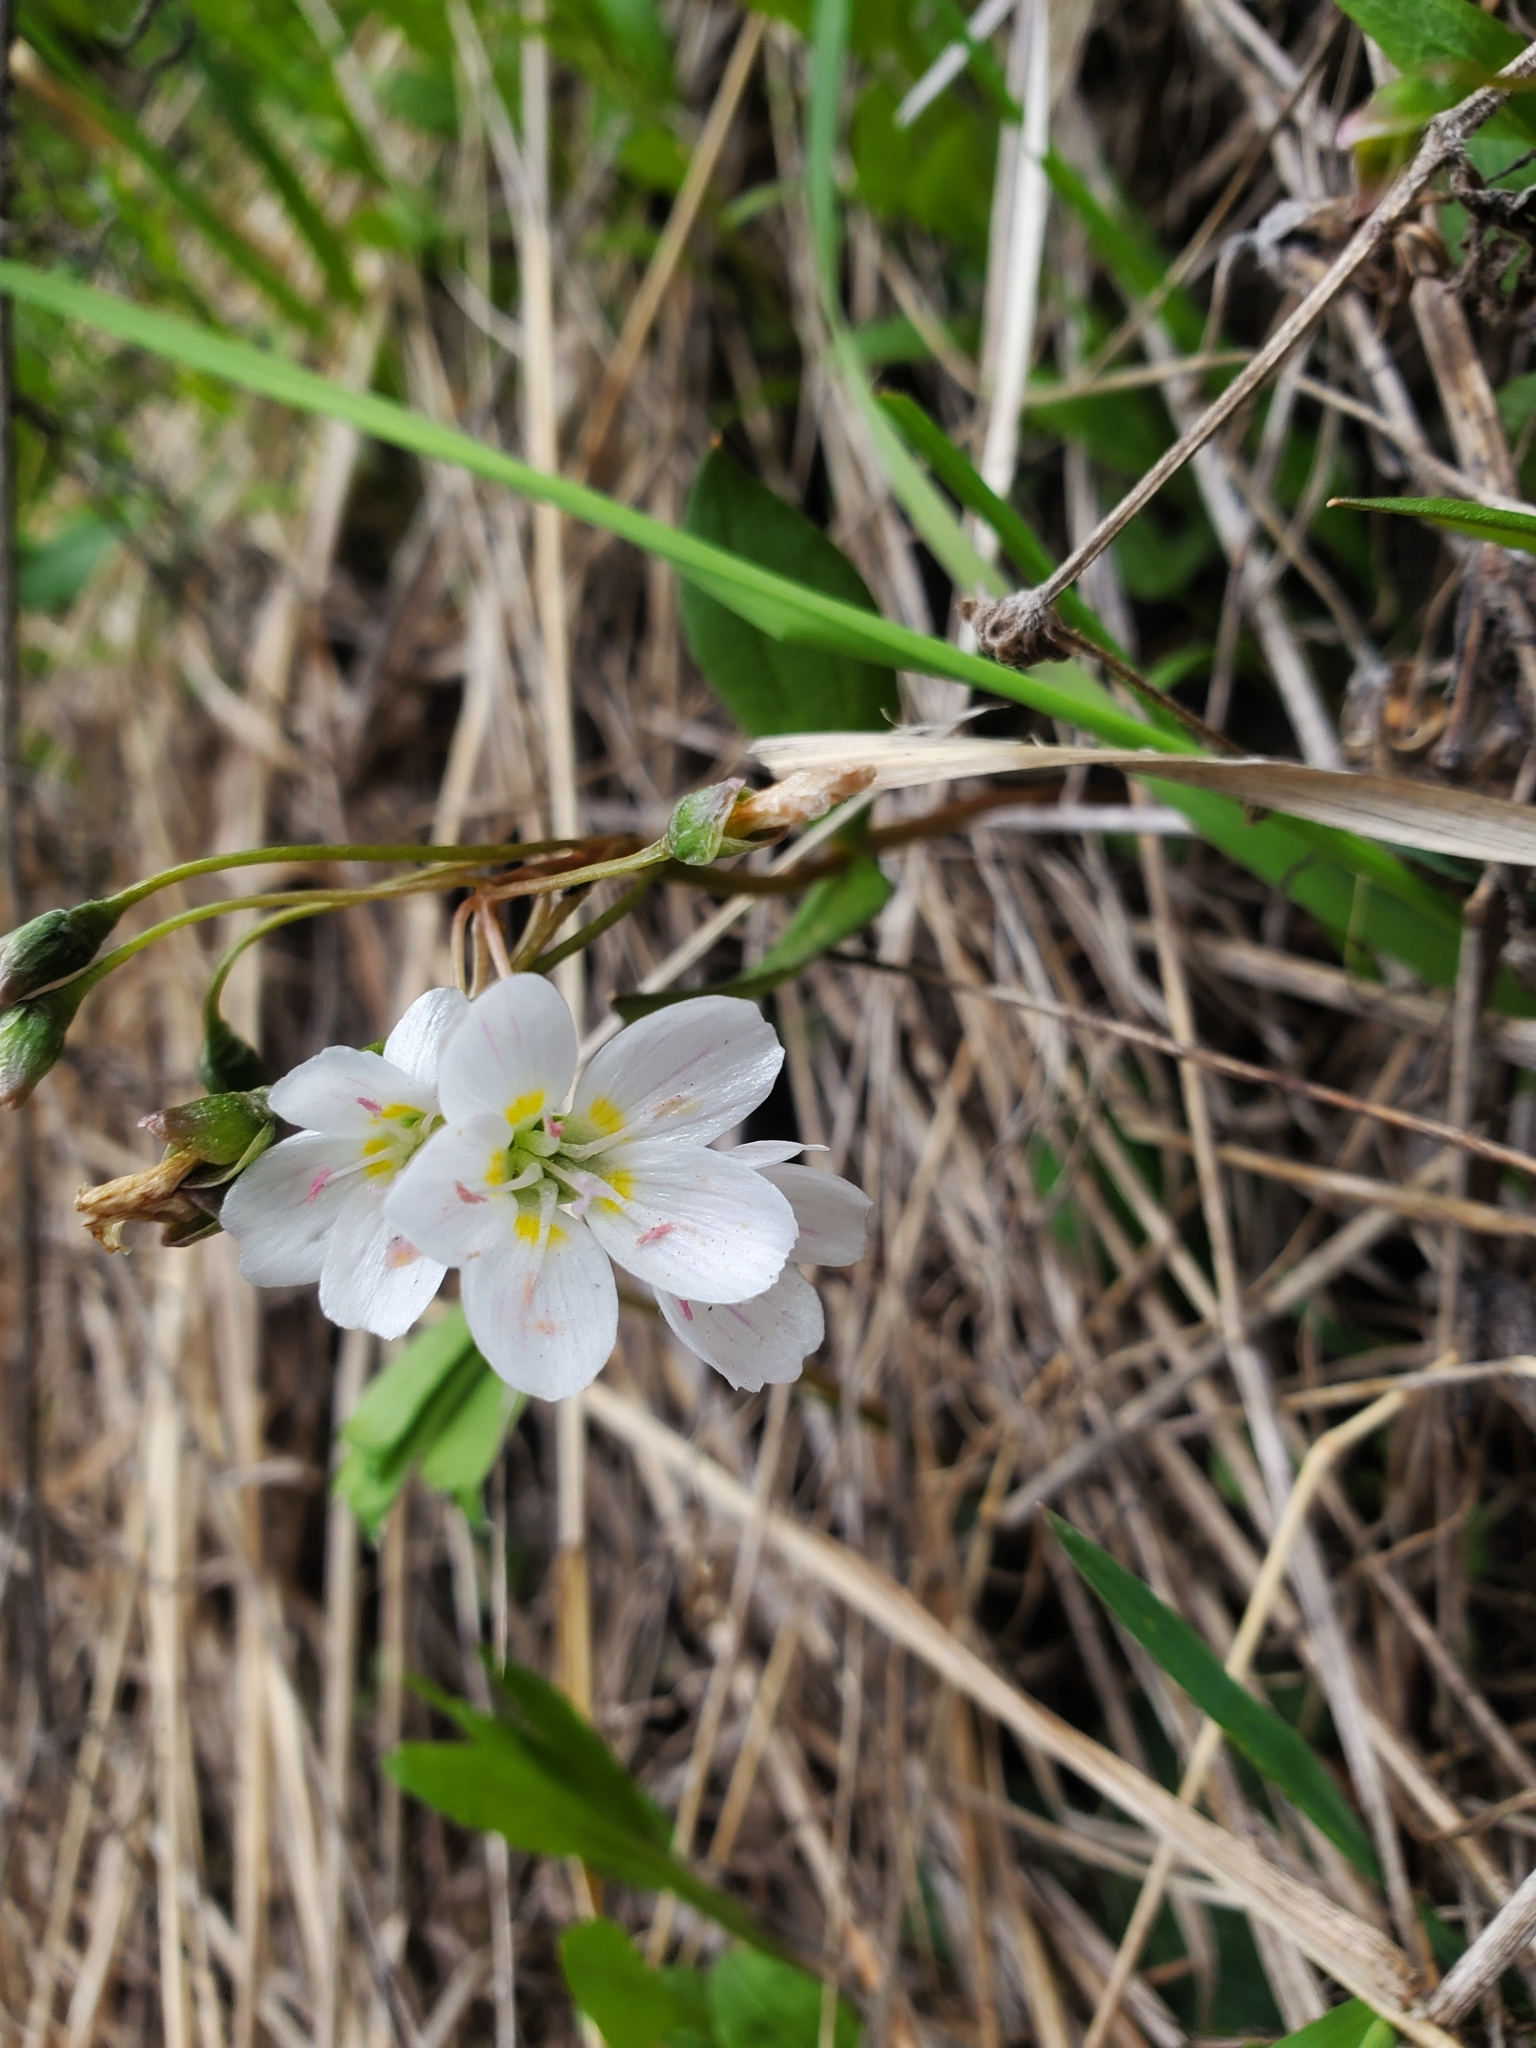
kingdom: Plantae
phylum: Tracheophyta
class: Magnoliopsida
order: Caryophyllales
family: Montiaceae
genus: Claytonia
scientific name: Claytonia lanceolata
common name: Western spring-beauty
